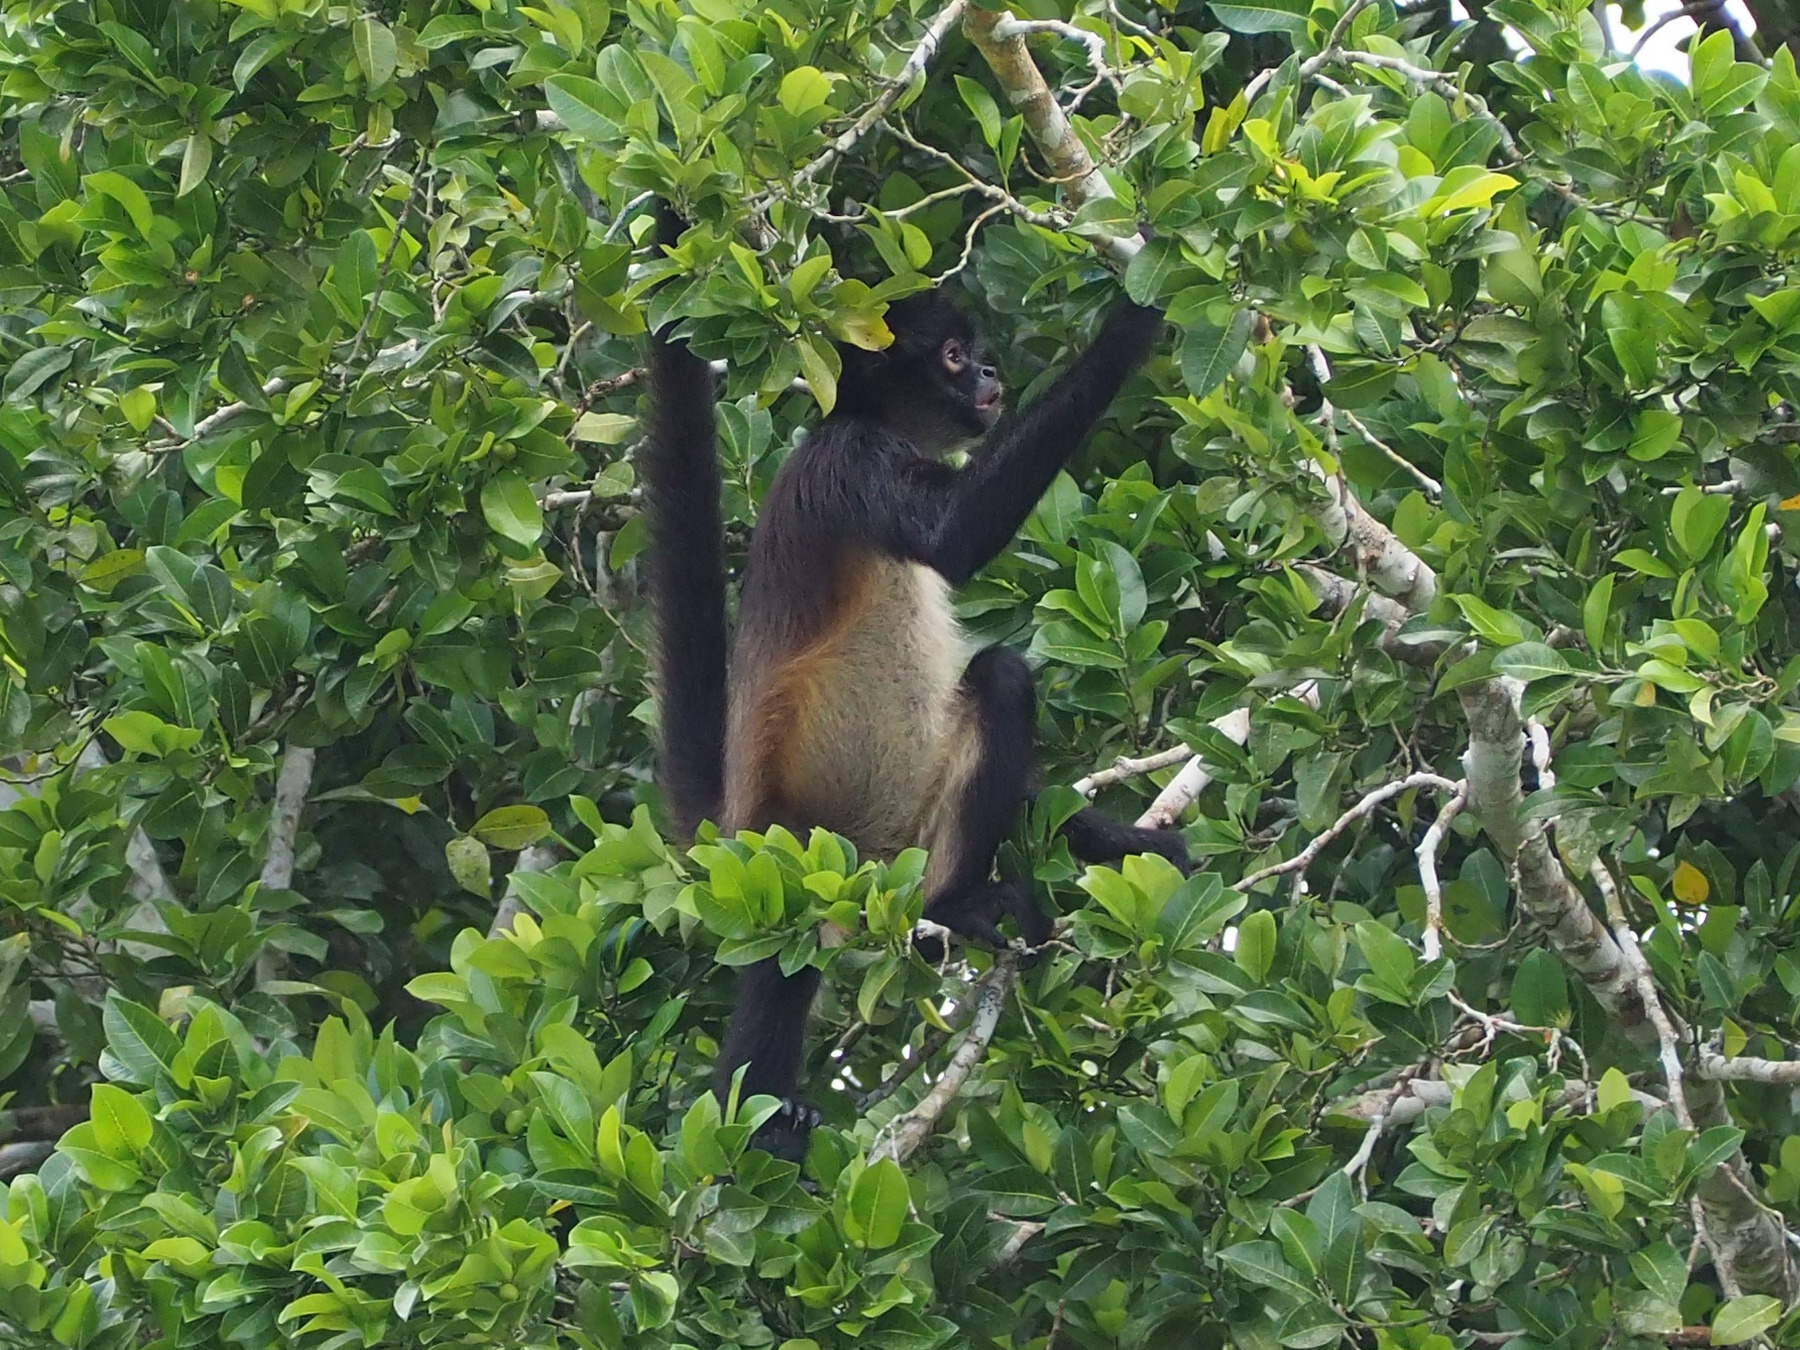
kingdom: Animalia
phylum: Chordata
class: Mammalia
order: Primates
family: Atelidae
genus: Ateles
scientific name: Ateles geoffroyi
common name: Black-handed spider monkey
